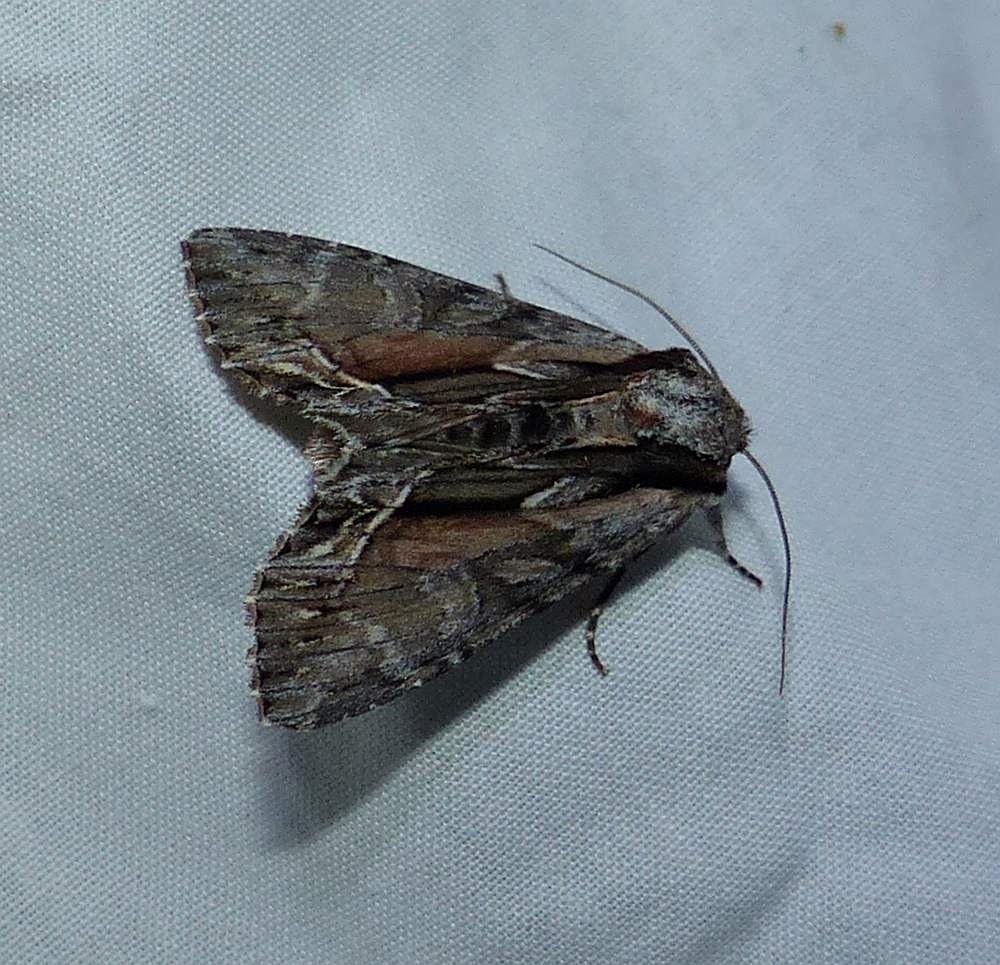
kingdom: Animalia
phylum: Arthropoda
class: Insecta
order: Lepidoptera
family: Noctuidae
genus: Hyppa
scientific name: Hyppa xylinoides
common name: Common hyppa moth
